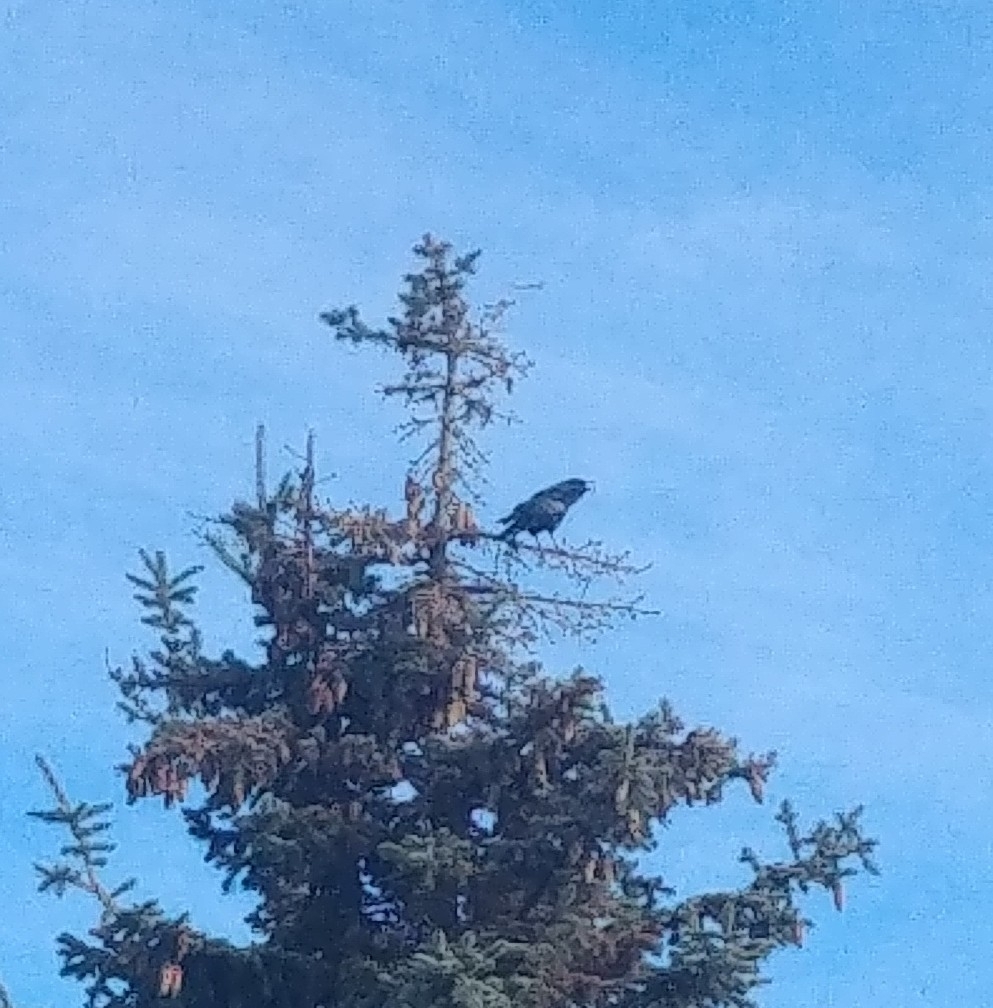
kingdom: Animalia
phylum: Chordata
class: Aves
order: Passeriformes
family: Corvidae
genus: Corvus
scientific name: Corvus brachyrhynchos
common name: American crow
